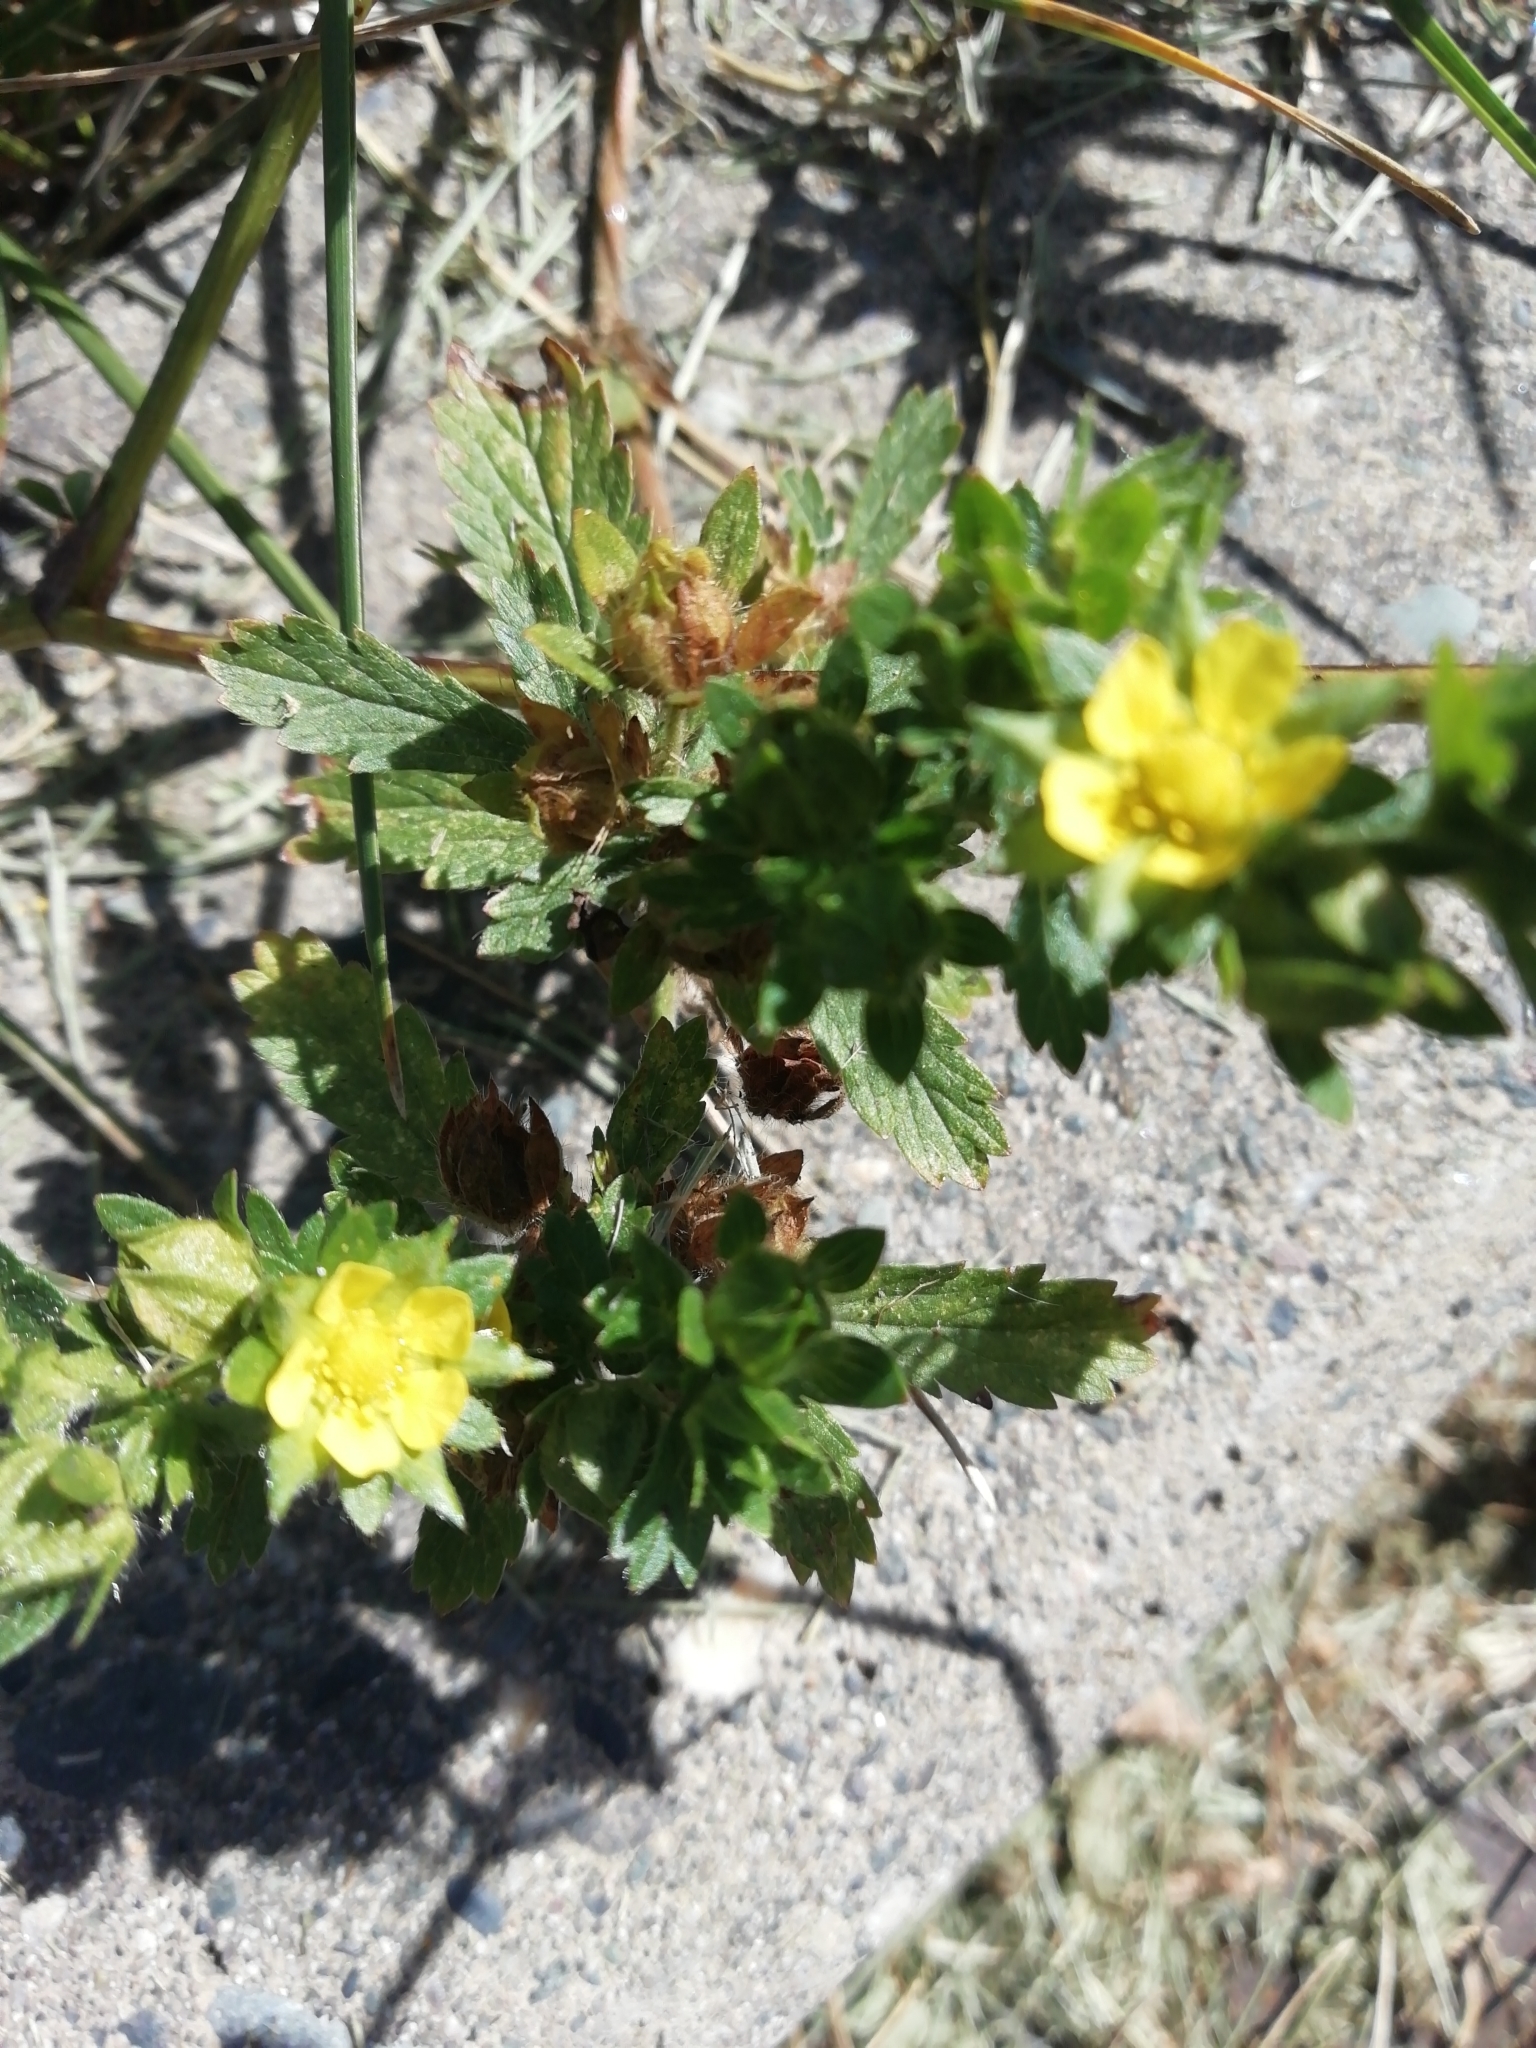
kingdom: Plantae
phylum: Tracheophyta
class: Magnoliopsida
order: Rosales
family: Rosaceae
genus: Potentilla
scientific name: Potentilla norvegica
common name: Ternate-leaved cinquefoil
